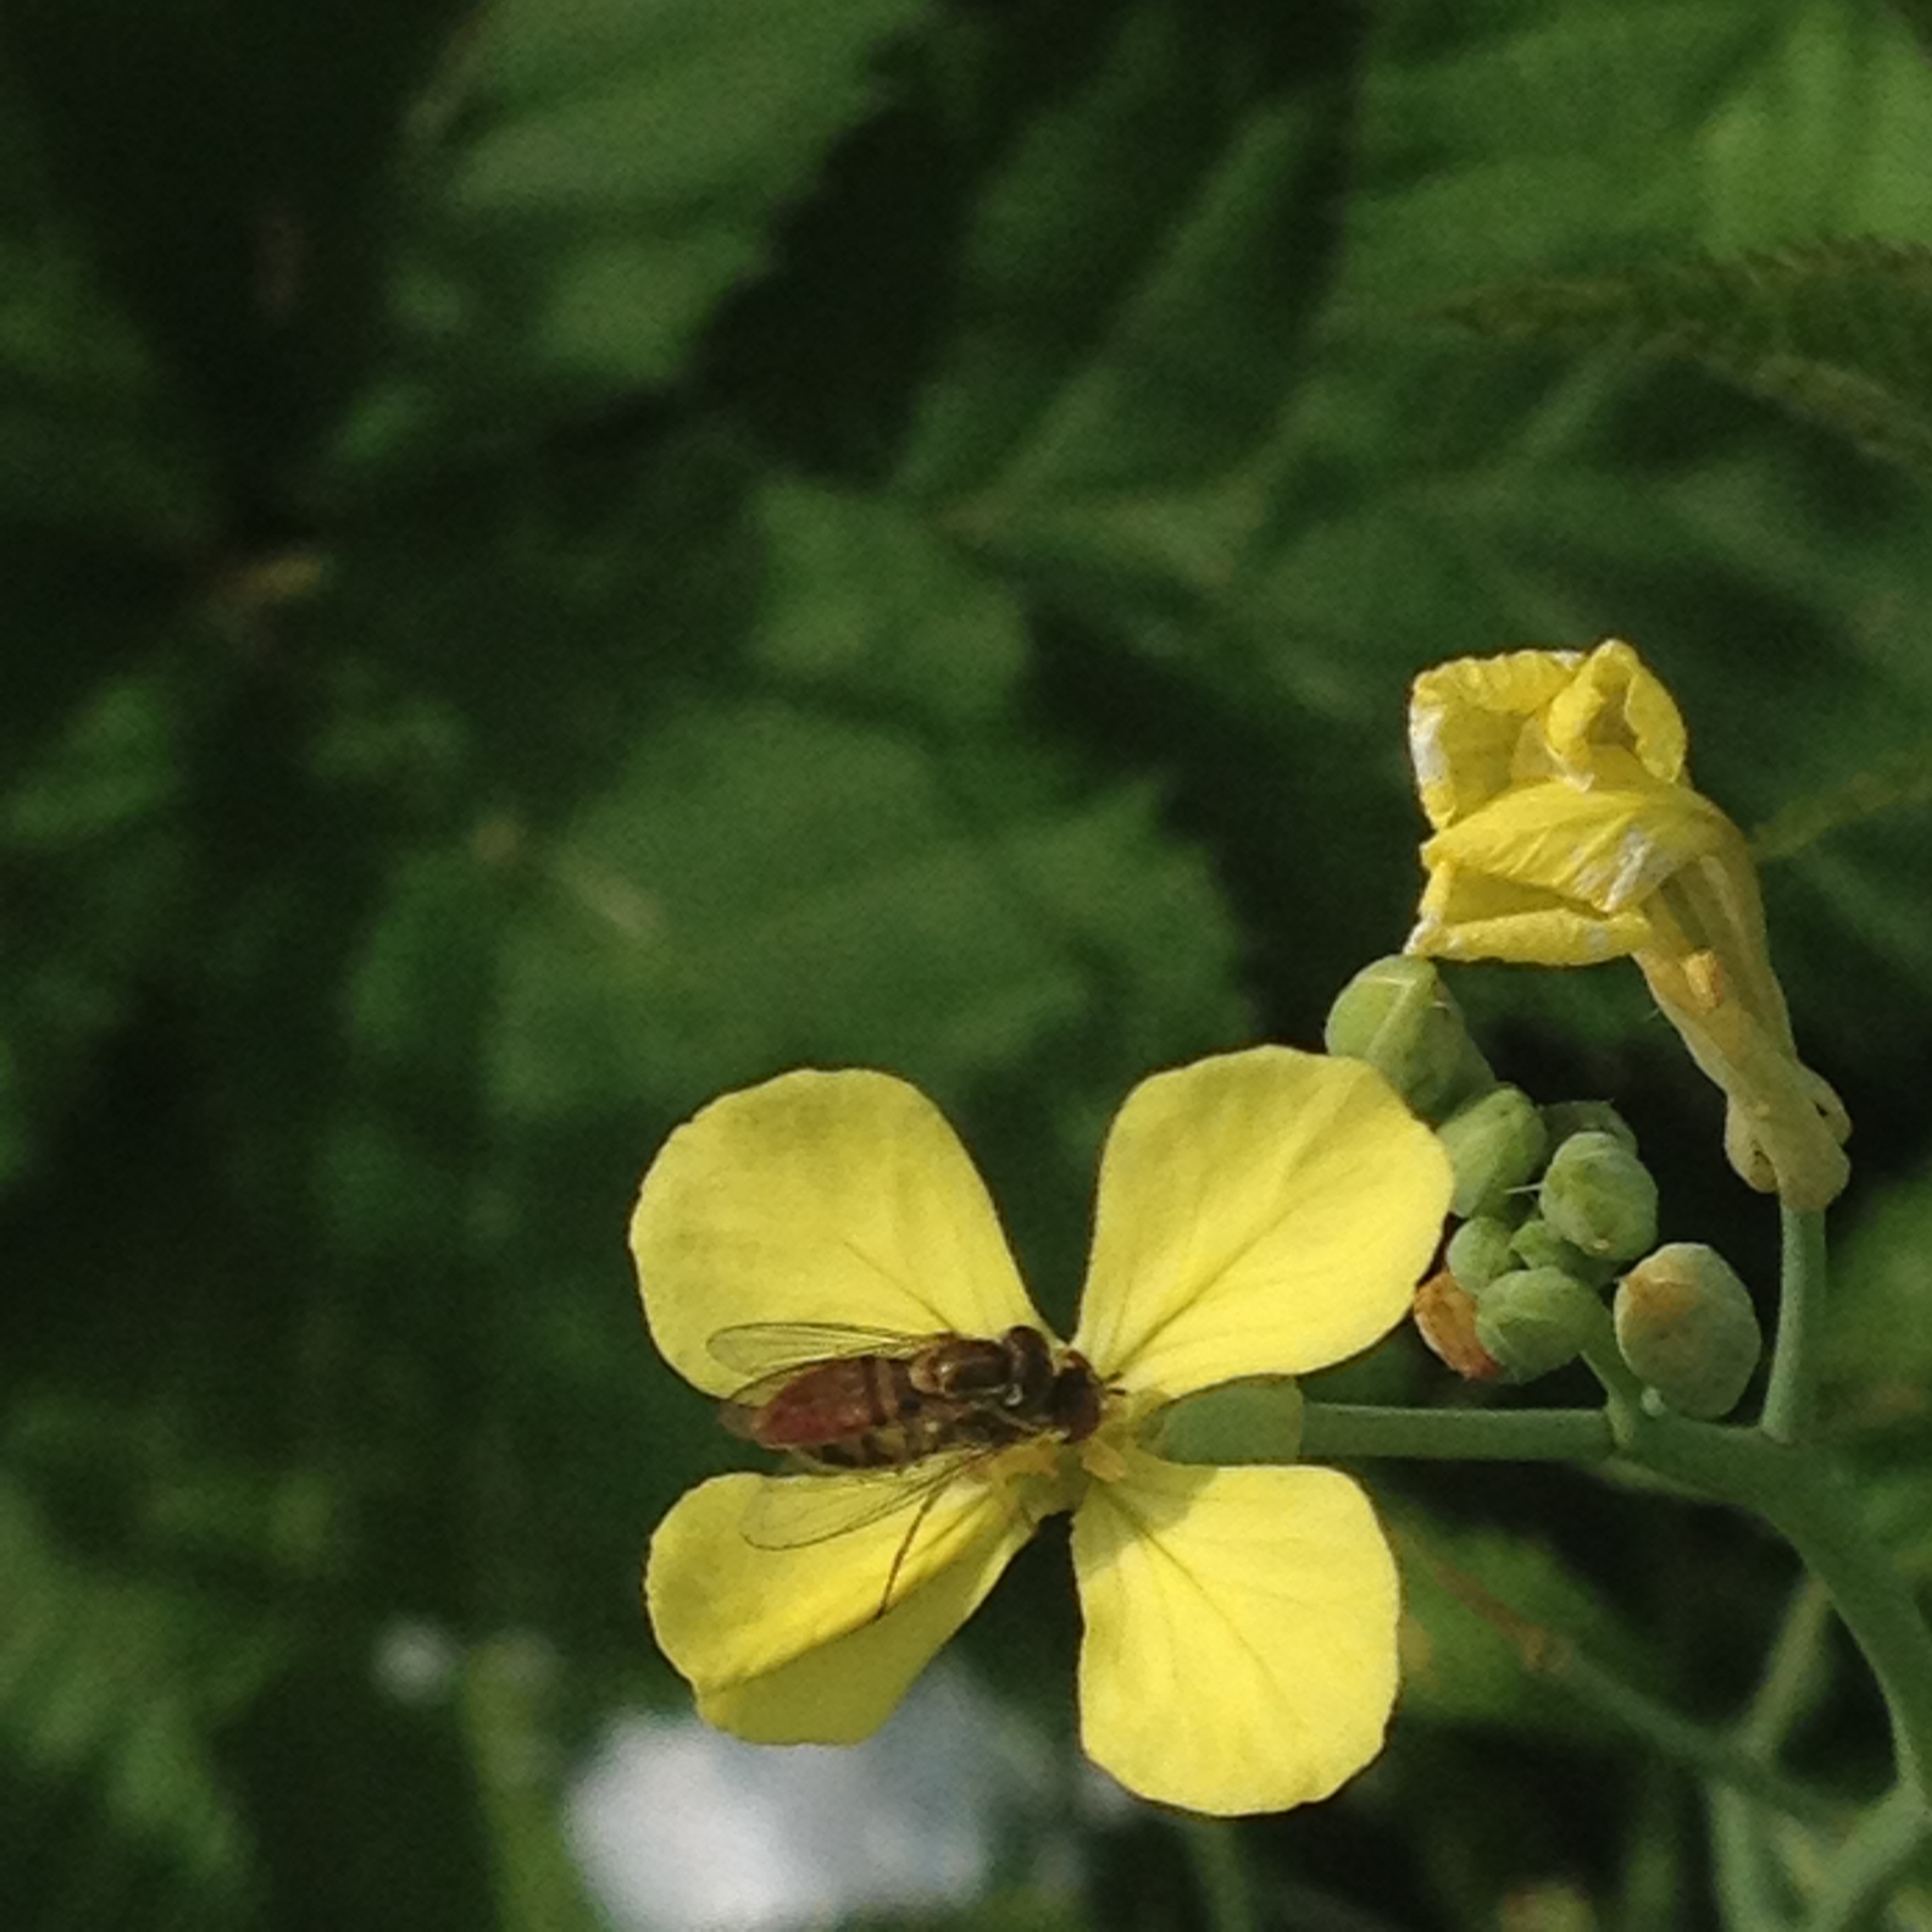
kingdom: Animalia
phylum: Arthropoda
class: Insecta
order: Diptera
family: Syrphidae
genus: Toxomerus
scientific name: Toxomerus marginatus
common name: Syrphid fly
